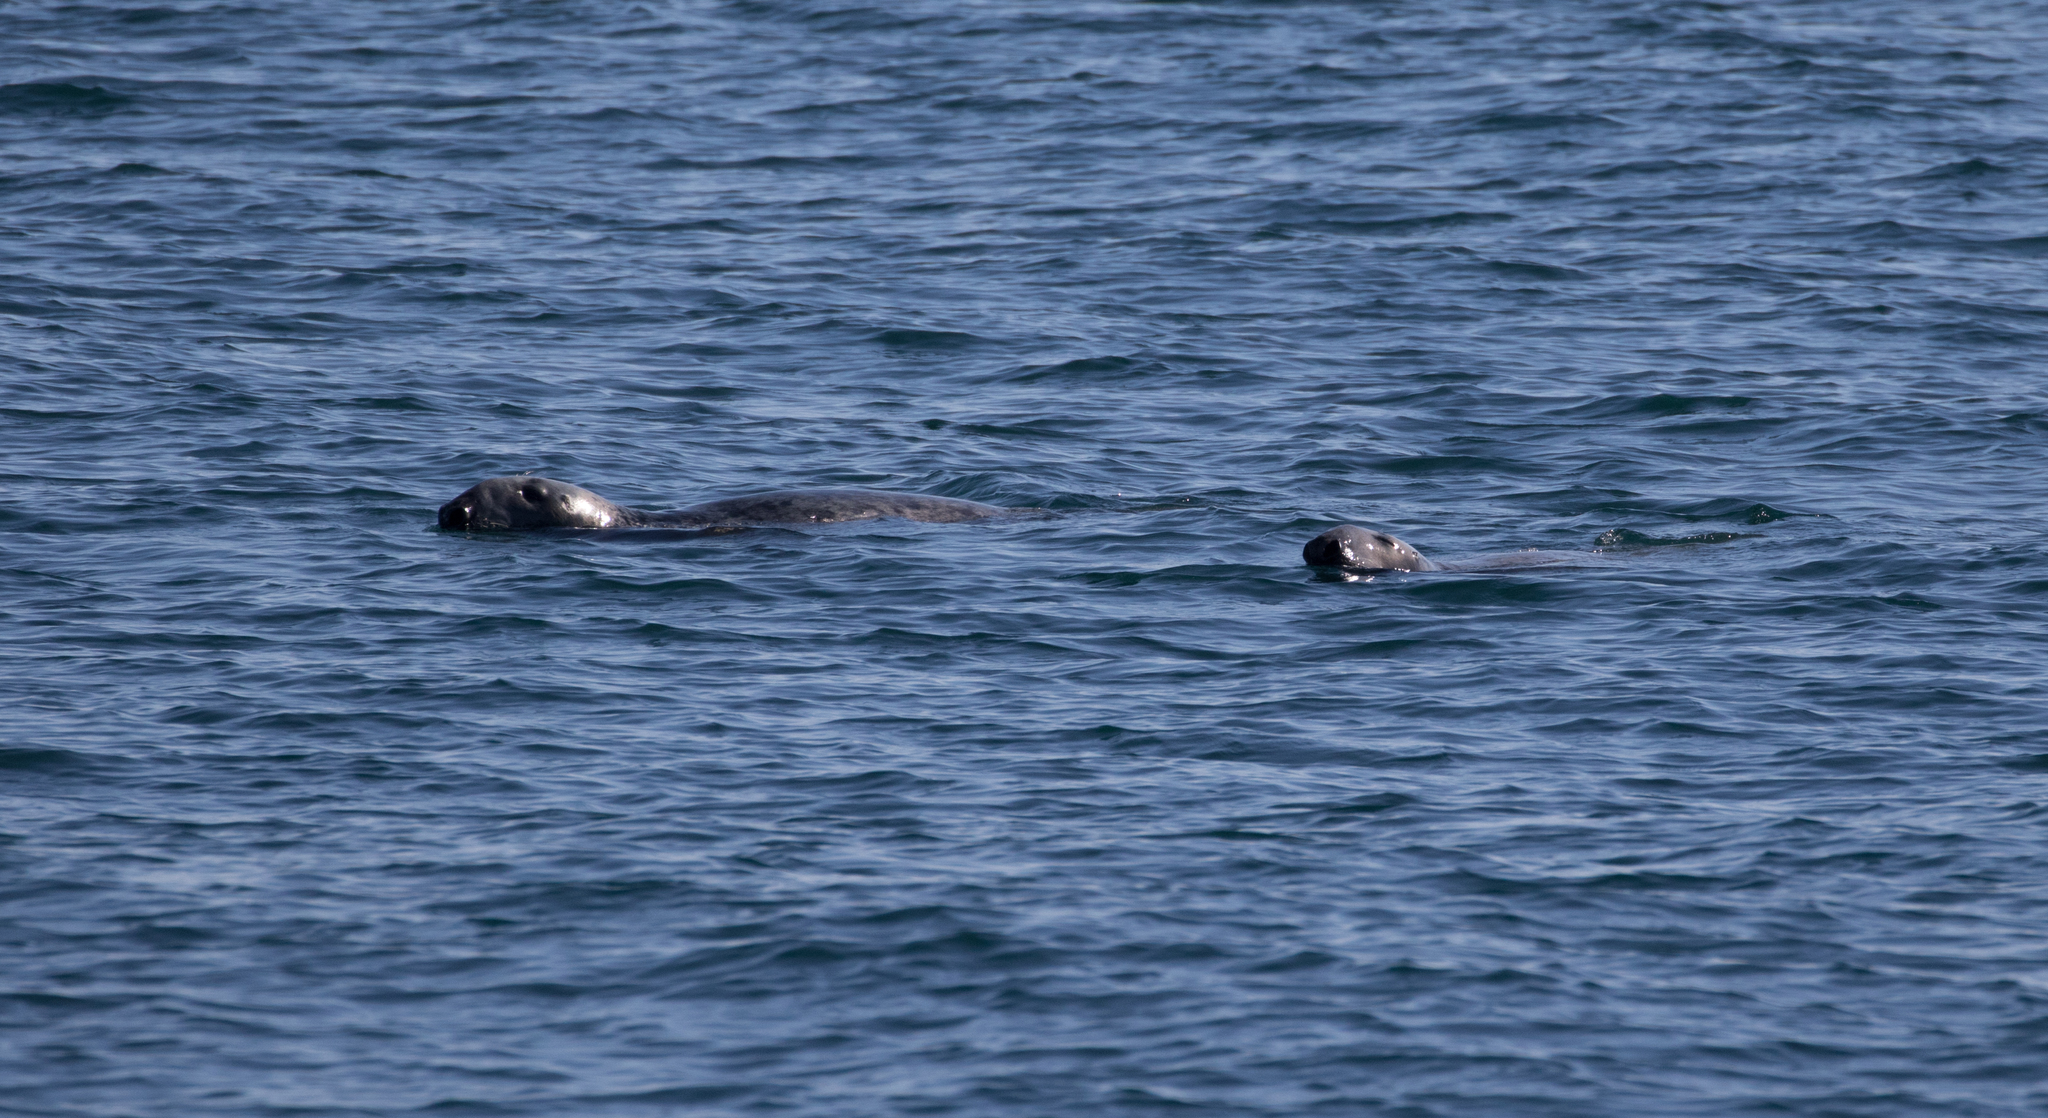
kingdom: Animalia
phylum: Chordata
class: Mammalia
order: Carnivora
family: Phocidae
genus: Halichoerus
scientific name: Halichoerus grypus
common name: Grey seal
